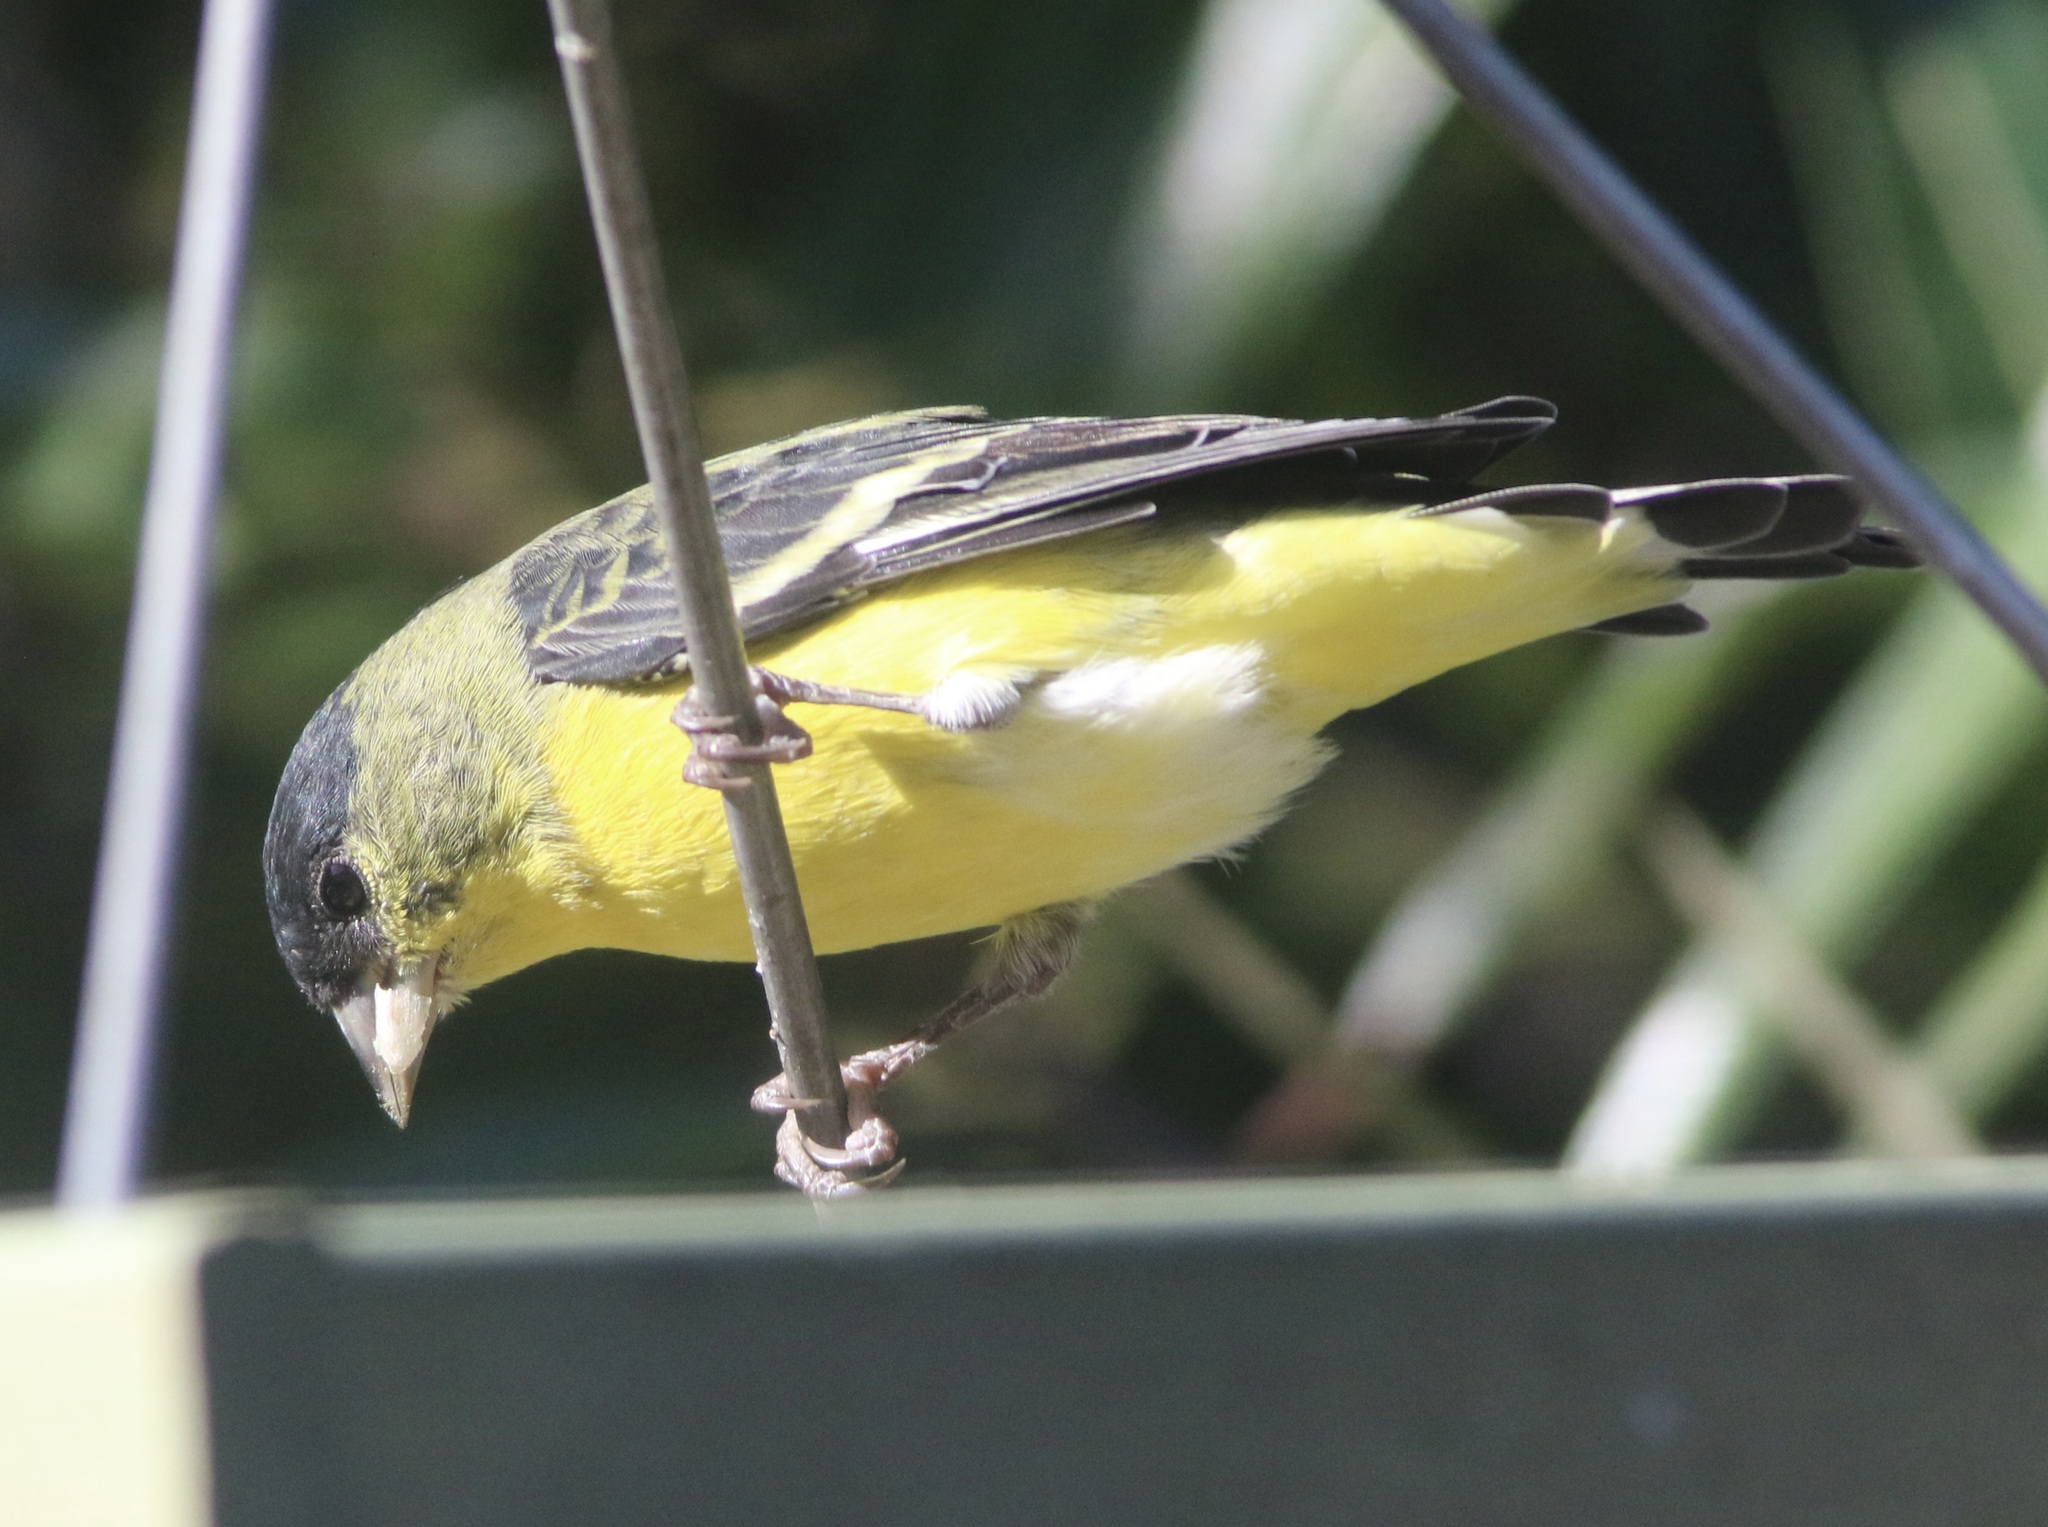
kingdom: Animalia
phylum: Chordata
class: Aves
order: Passeriformes
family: Fringillidae
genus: Spinus
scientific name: Spinus psaltria
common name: Lesser goldfinch
